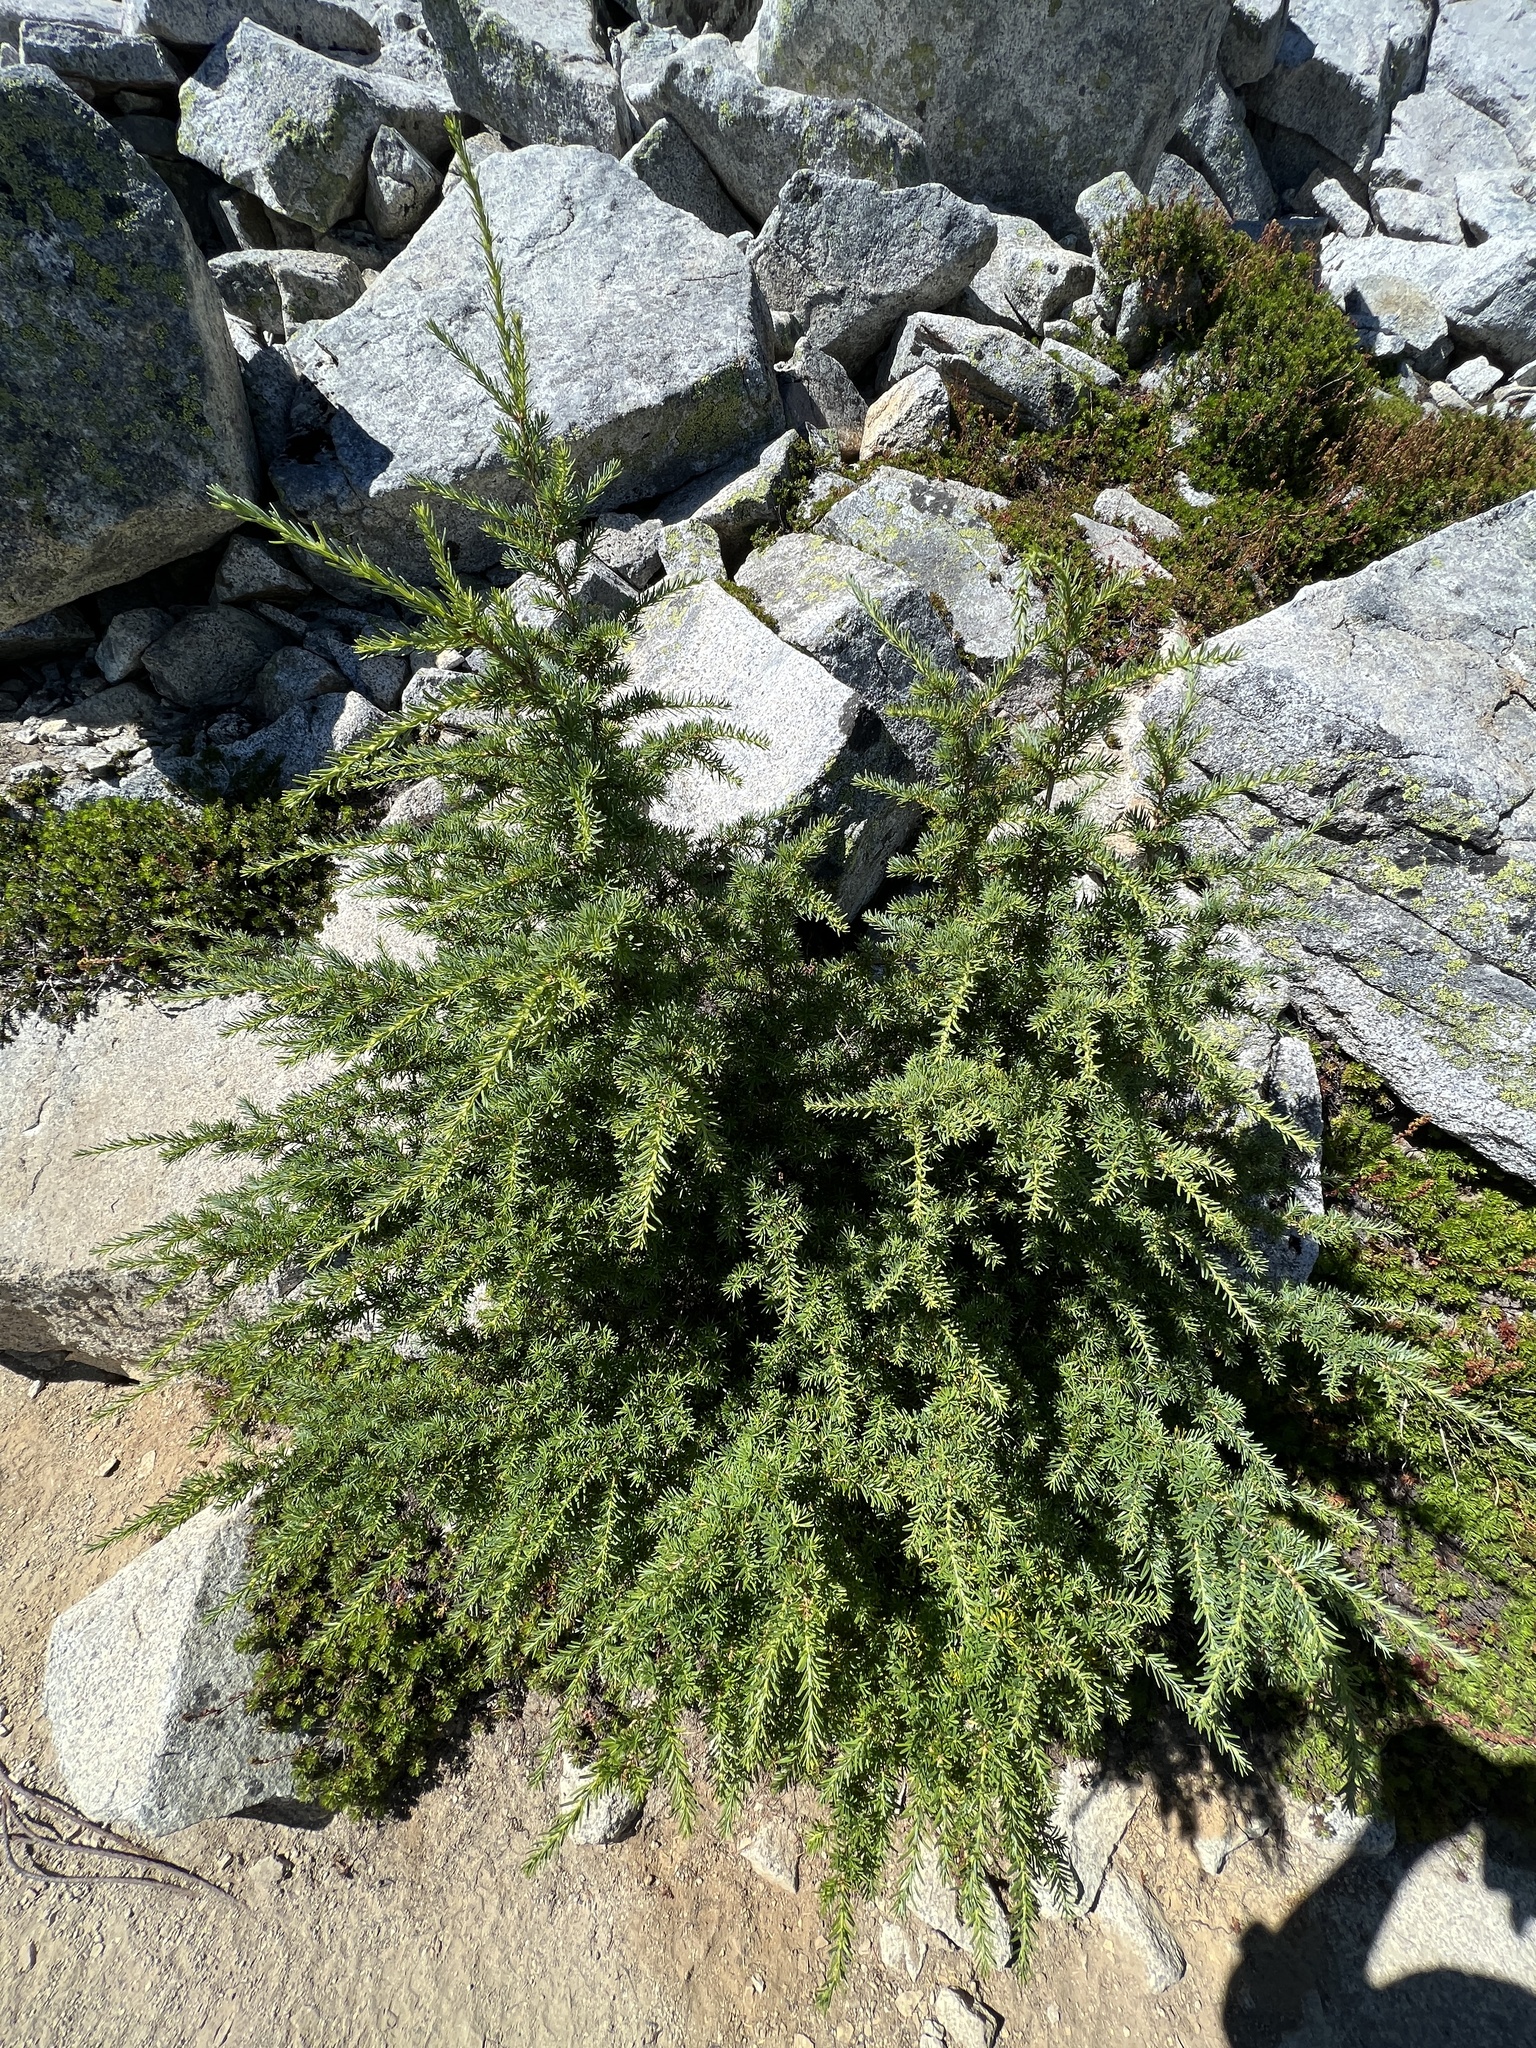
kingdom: Plantae
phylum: Tracheophyta
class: Pinopsida
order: Pinales
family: Pinaceae
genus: Tsuga
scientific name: Tsuga mertensiana
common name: Mountain hemlock
